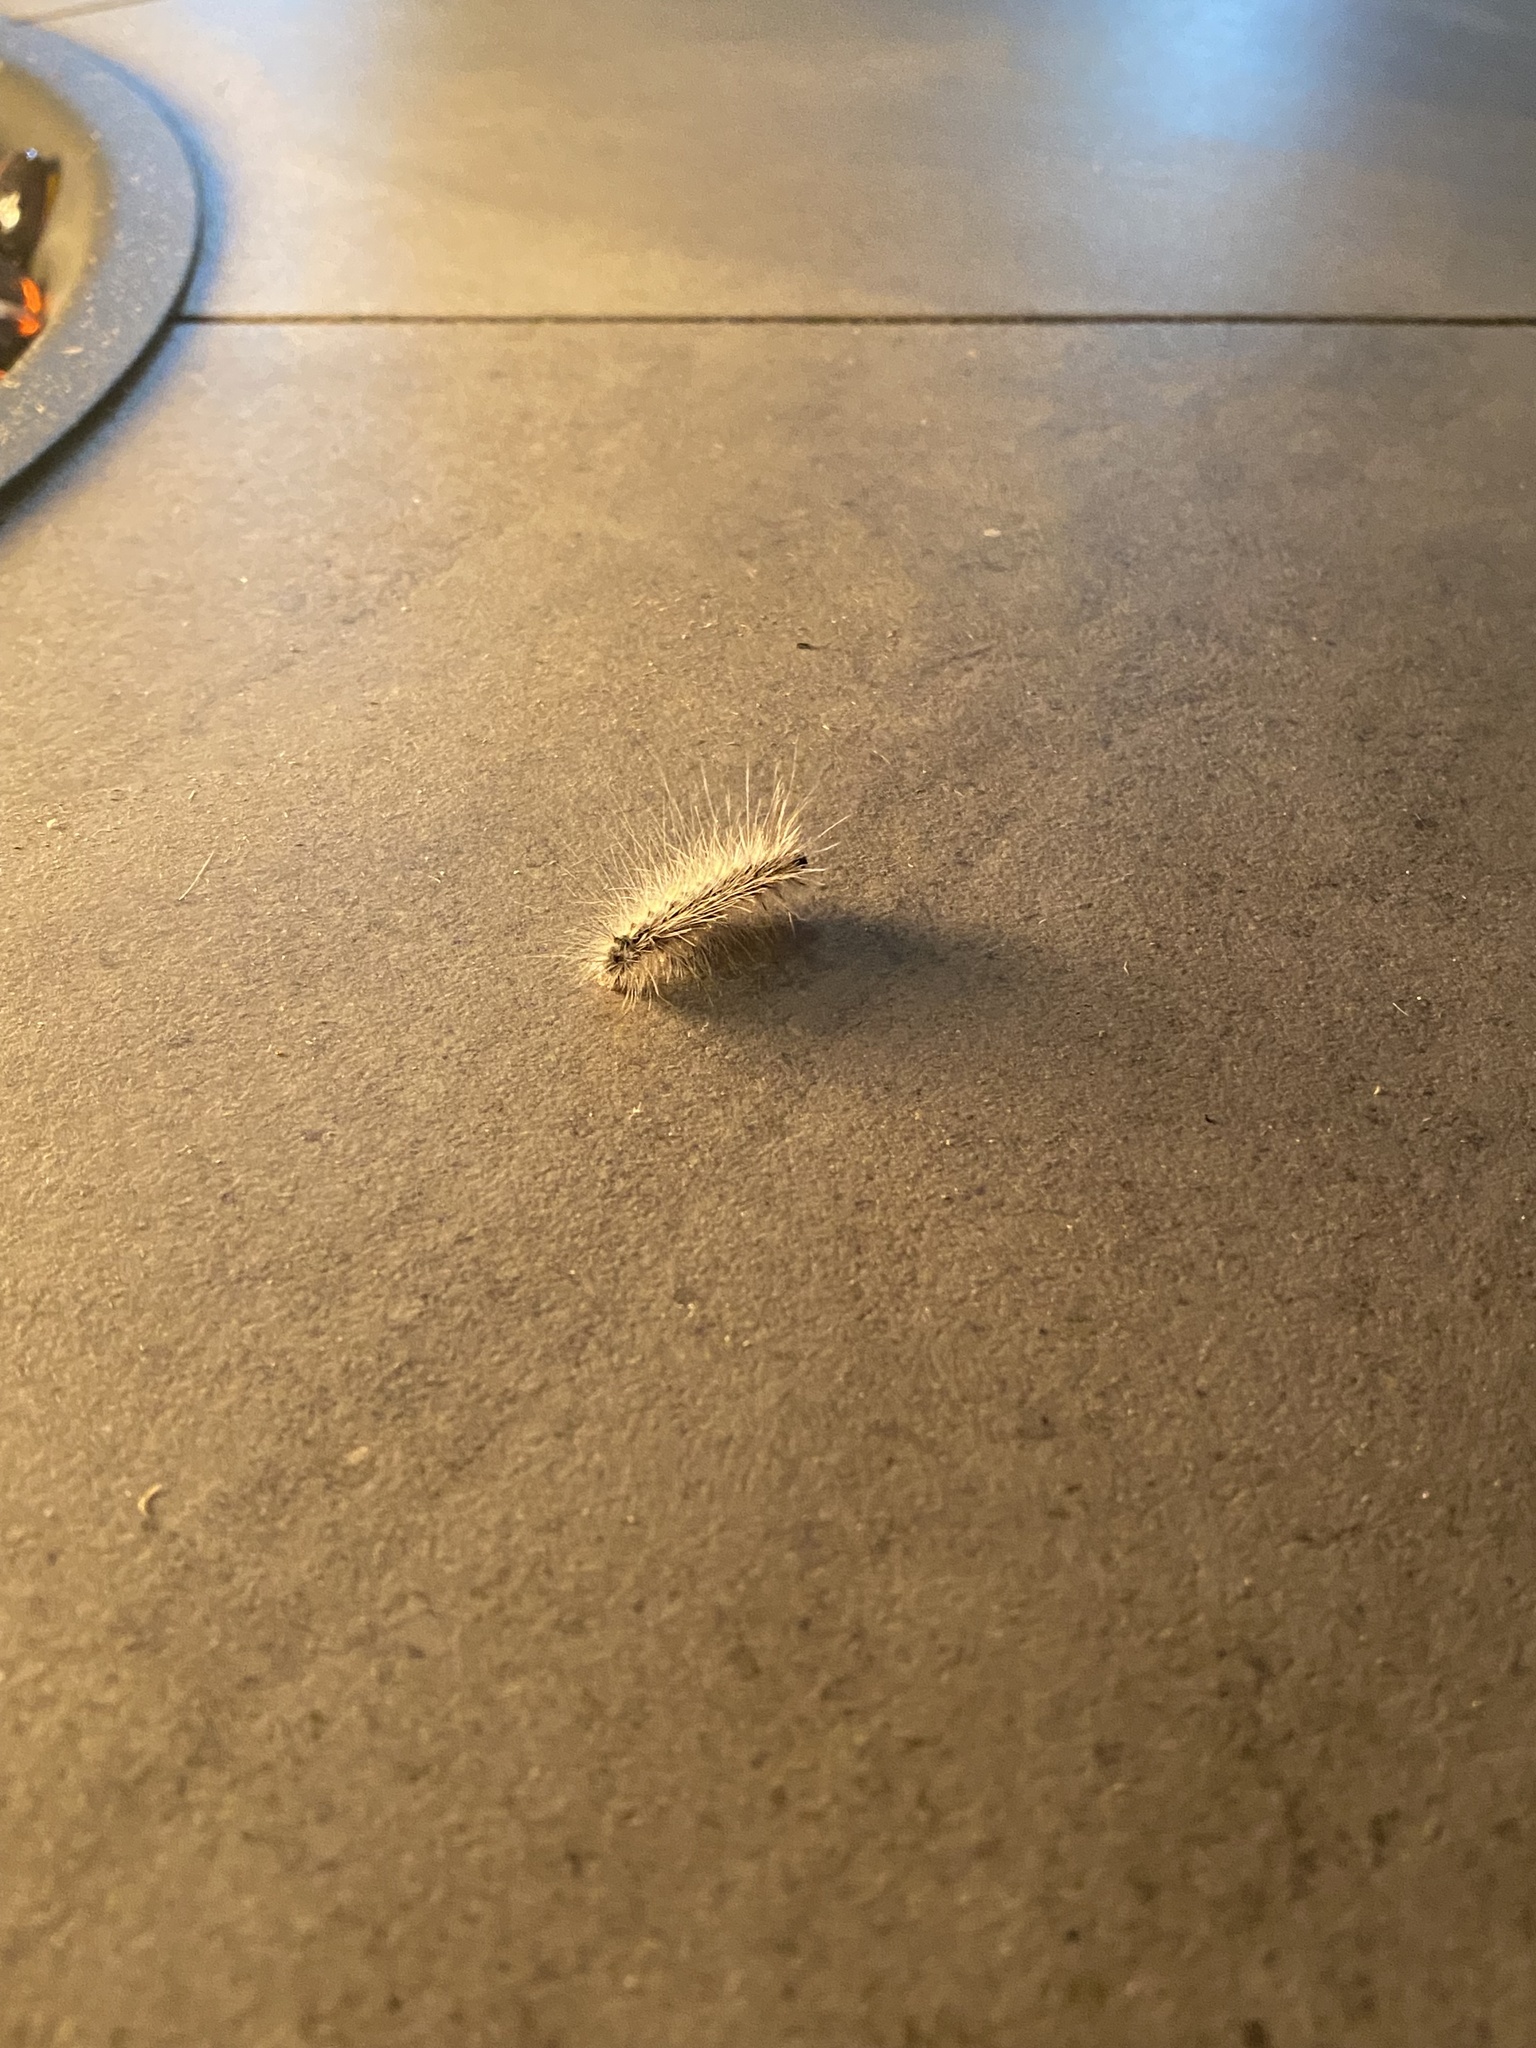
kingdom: Animalia
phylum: Arthropoda
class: Insecta
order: Lepidoptera
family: Erebidae
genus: Hyphantria
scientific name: Hyphantria cunea
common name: American white moth
